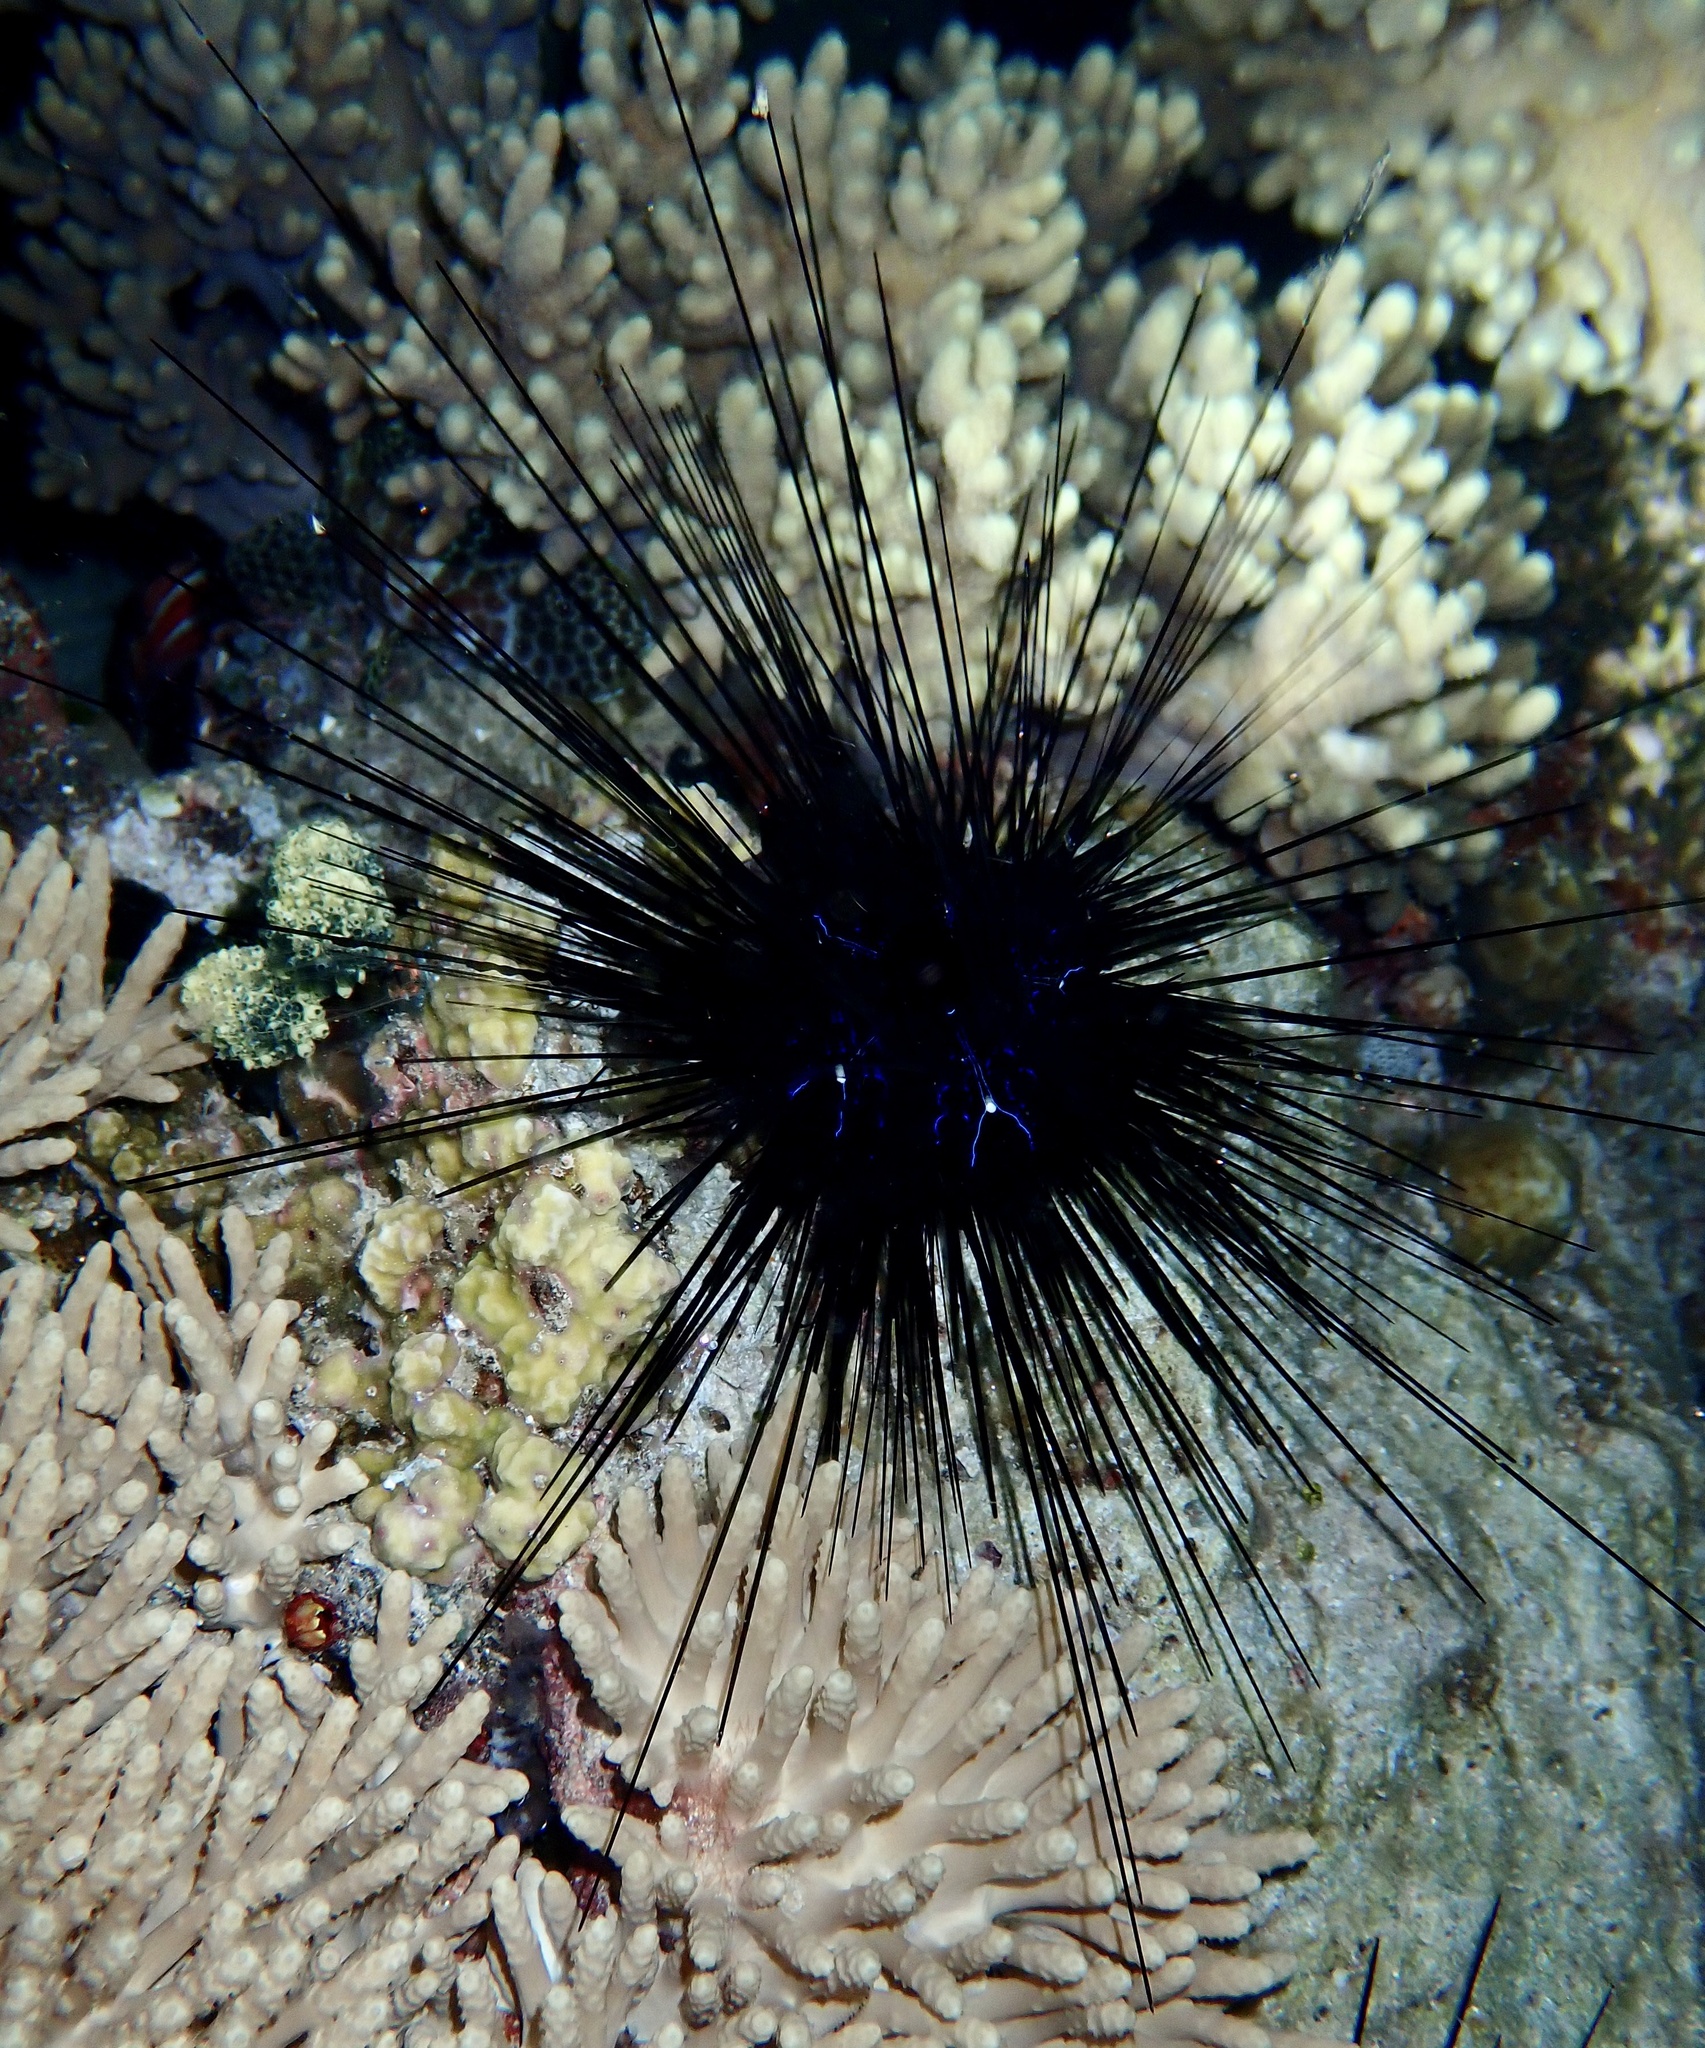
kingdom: Animalia
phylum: Echinodermata
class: Echinoidea
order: Diadematoida
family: Diadematidae
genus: Diadema
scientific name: Diadema savignyi
